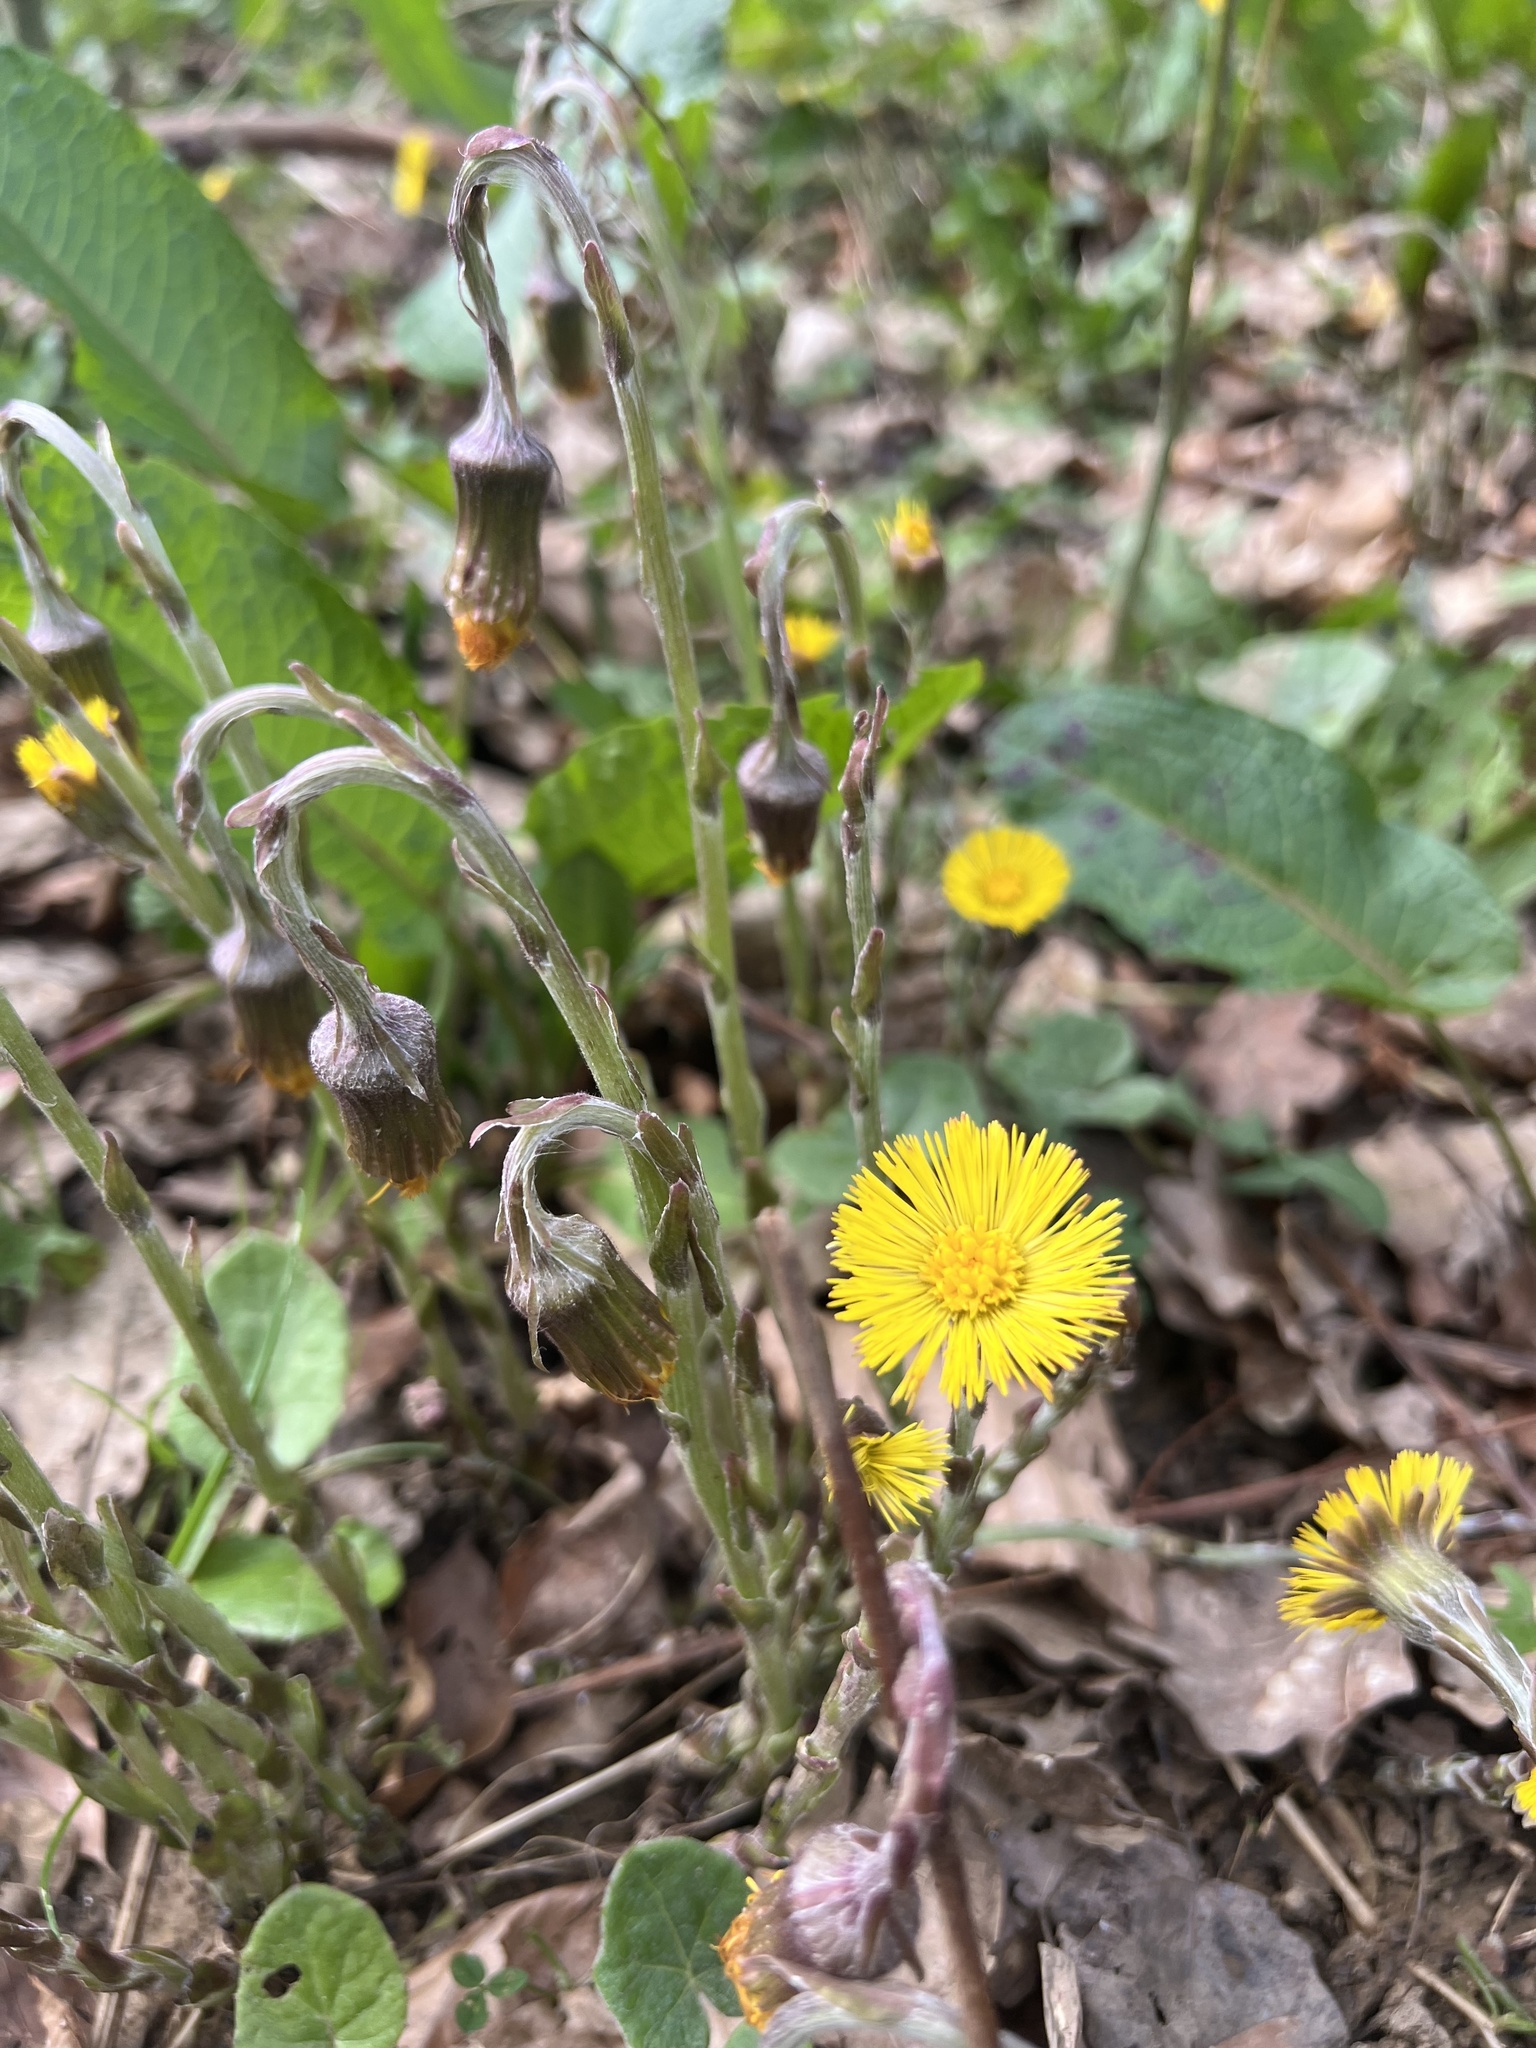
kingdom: Plantae
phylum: Tracheophyta
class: Magnoliopsida
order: Asterales
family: Asteraceae
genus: Tussilago
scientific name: Tussilago farfara
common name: Coltsfoot
